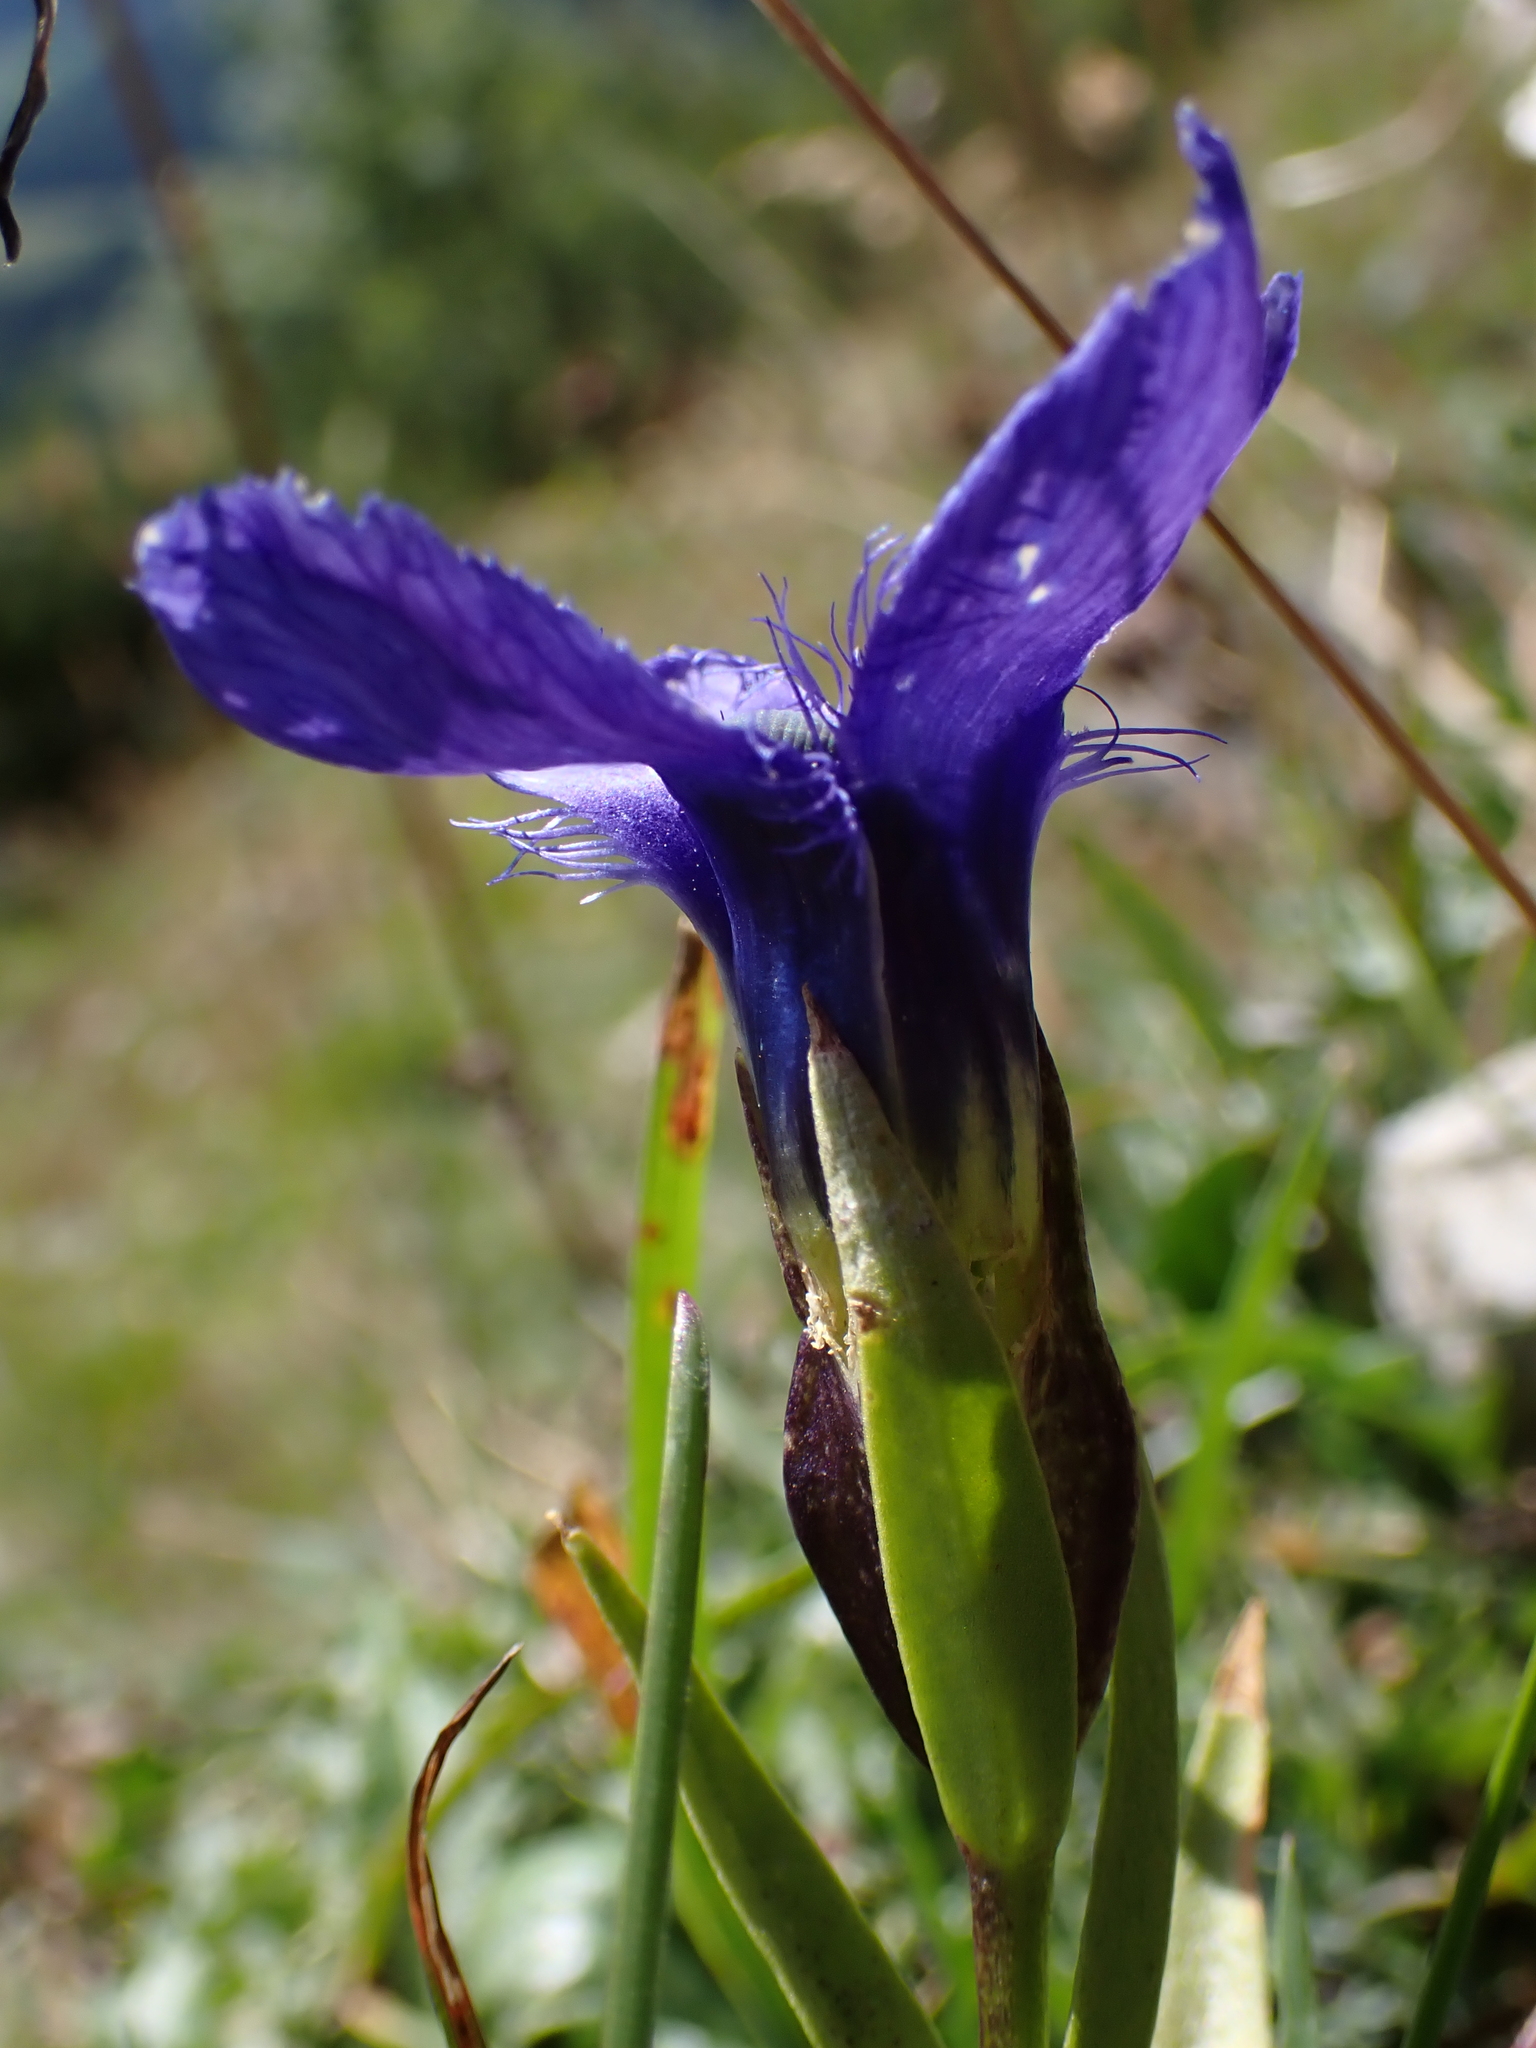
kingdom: Plantae
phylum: Tracheophyta
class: Magnoliopsida
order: Gentianales
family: Gentianaceae
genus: Gentianopsis
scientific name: Gentianopsis ciliata
